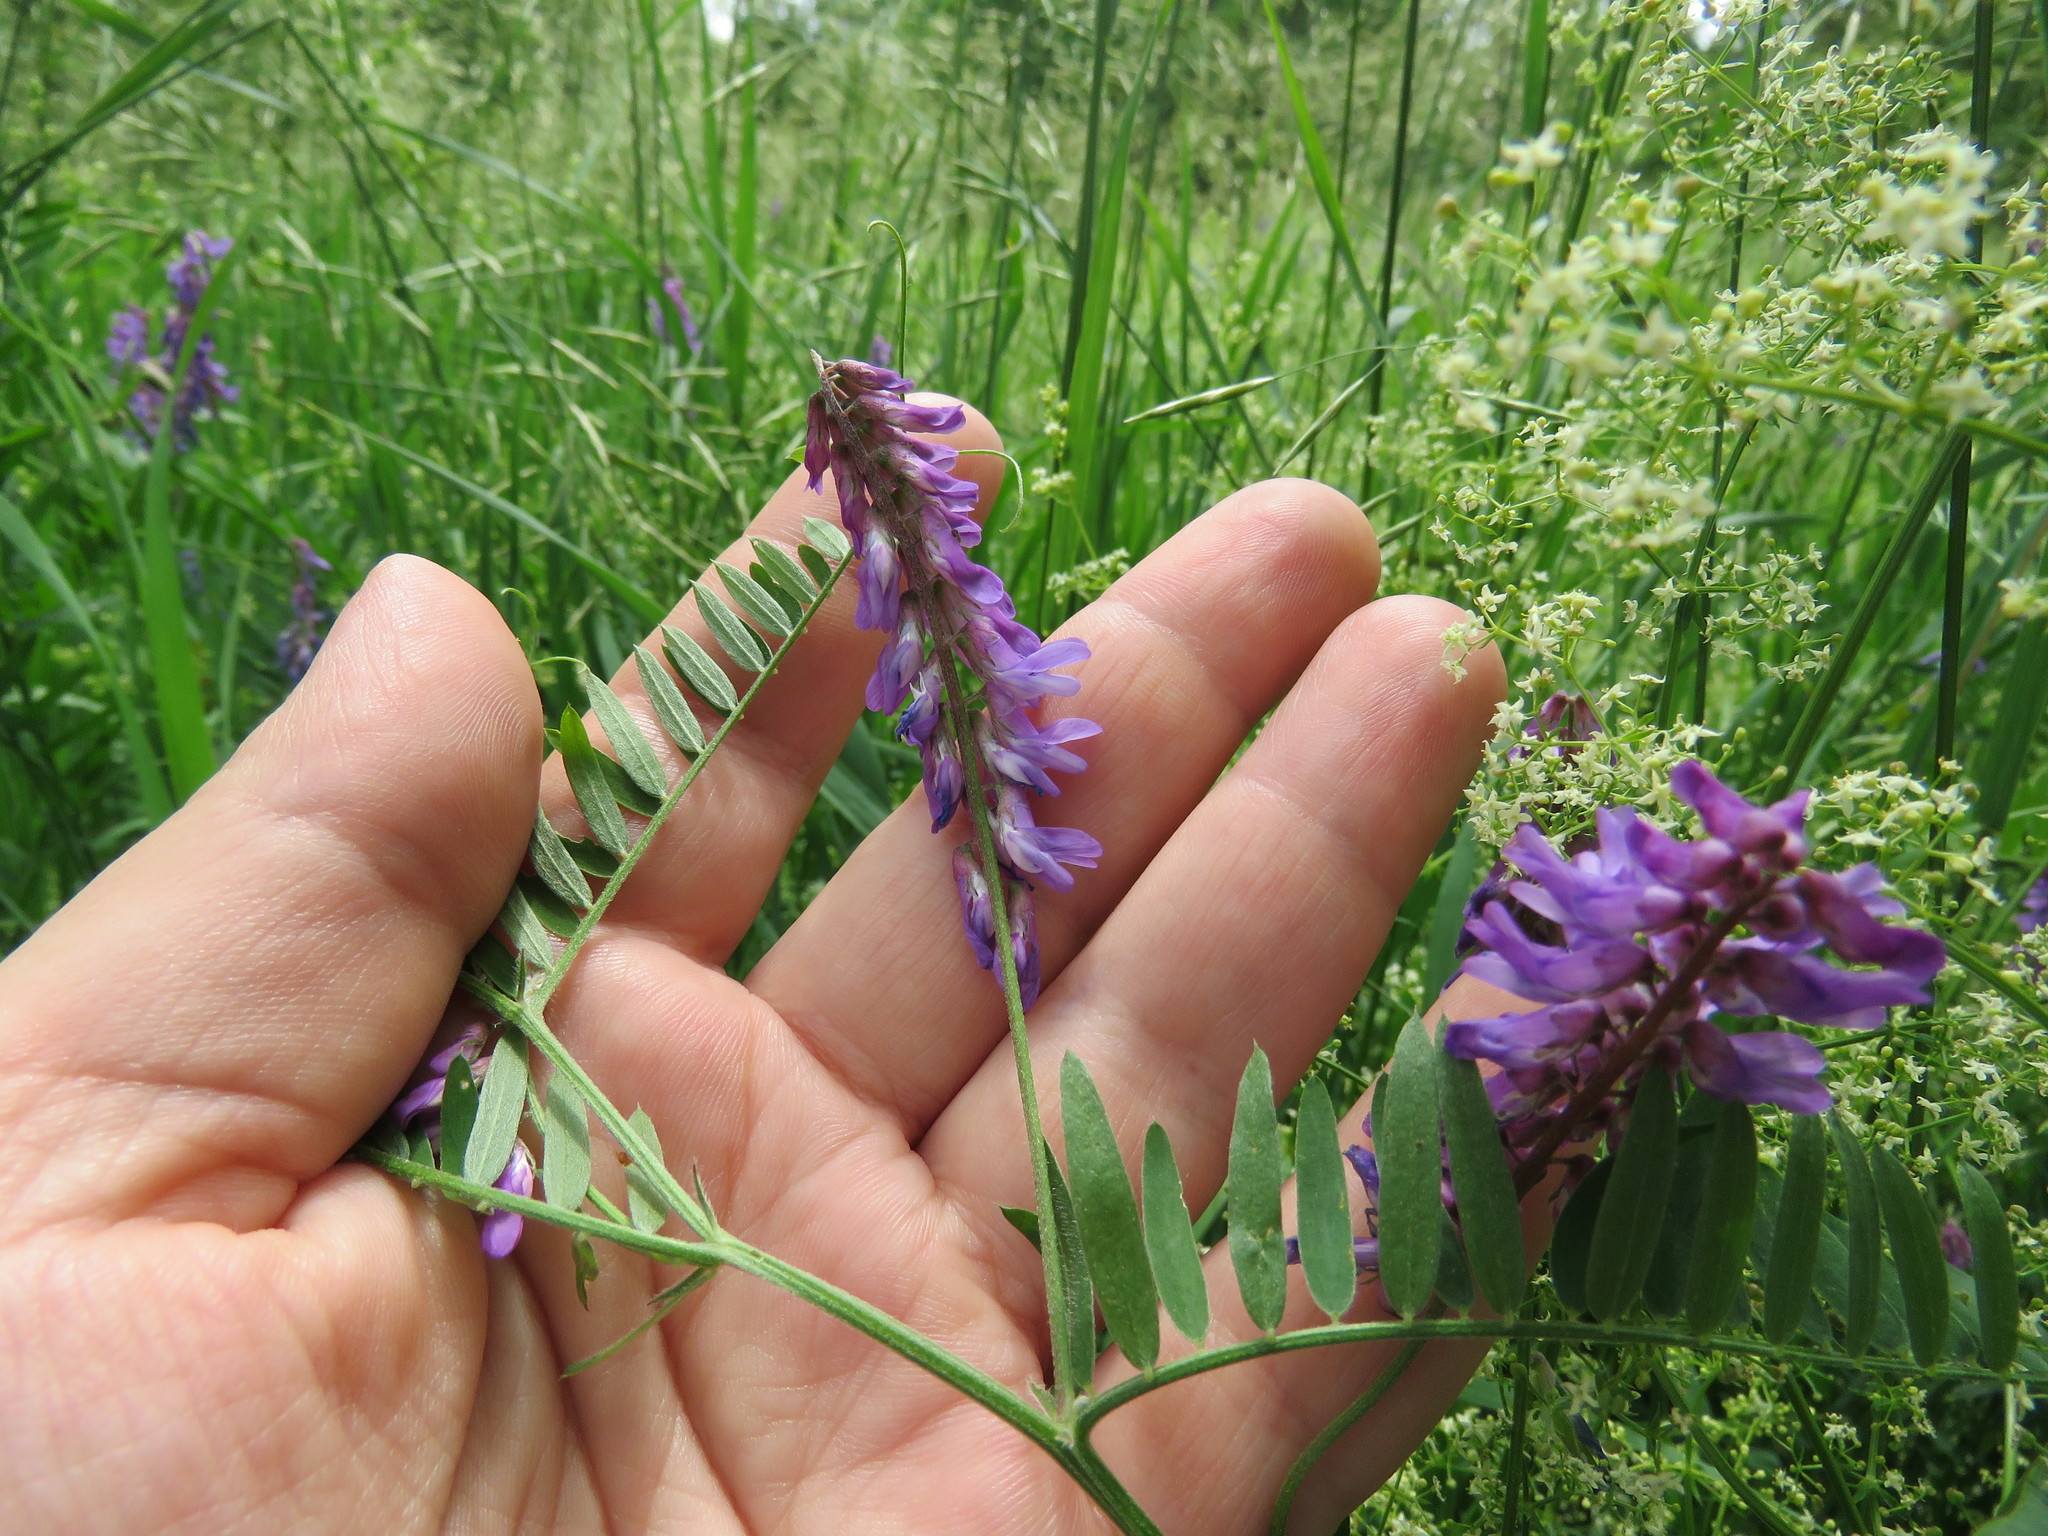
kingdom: Plantae
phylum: Tracheophyta
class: Magnoliopsida
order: Fabales
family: Fabaceae
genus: Vicia
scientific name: Vicia cracca
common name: Bird vetch
